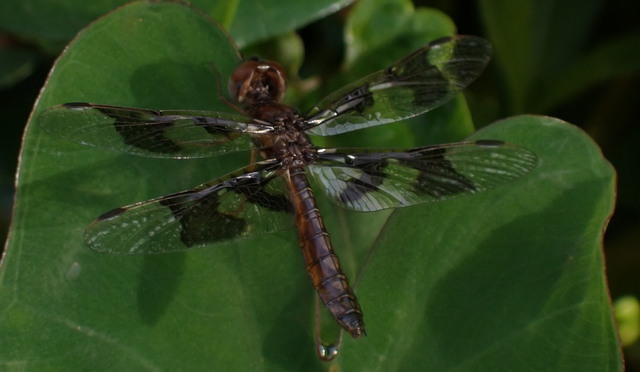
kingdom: Animalia
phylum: Arthropoda
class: Insecta
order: Odonata
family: Libellulidae
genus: Perithemis
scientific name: Perithemis tenera
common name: Eastern amberwing
